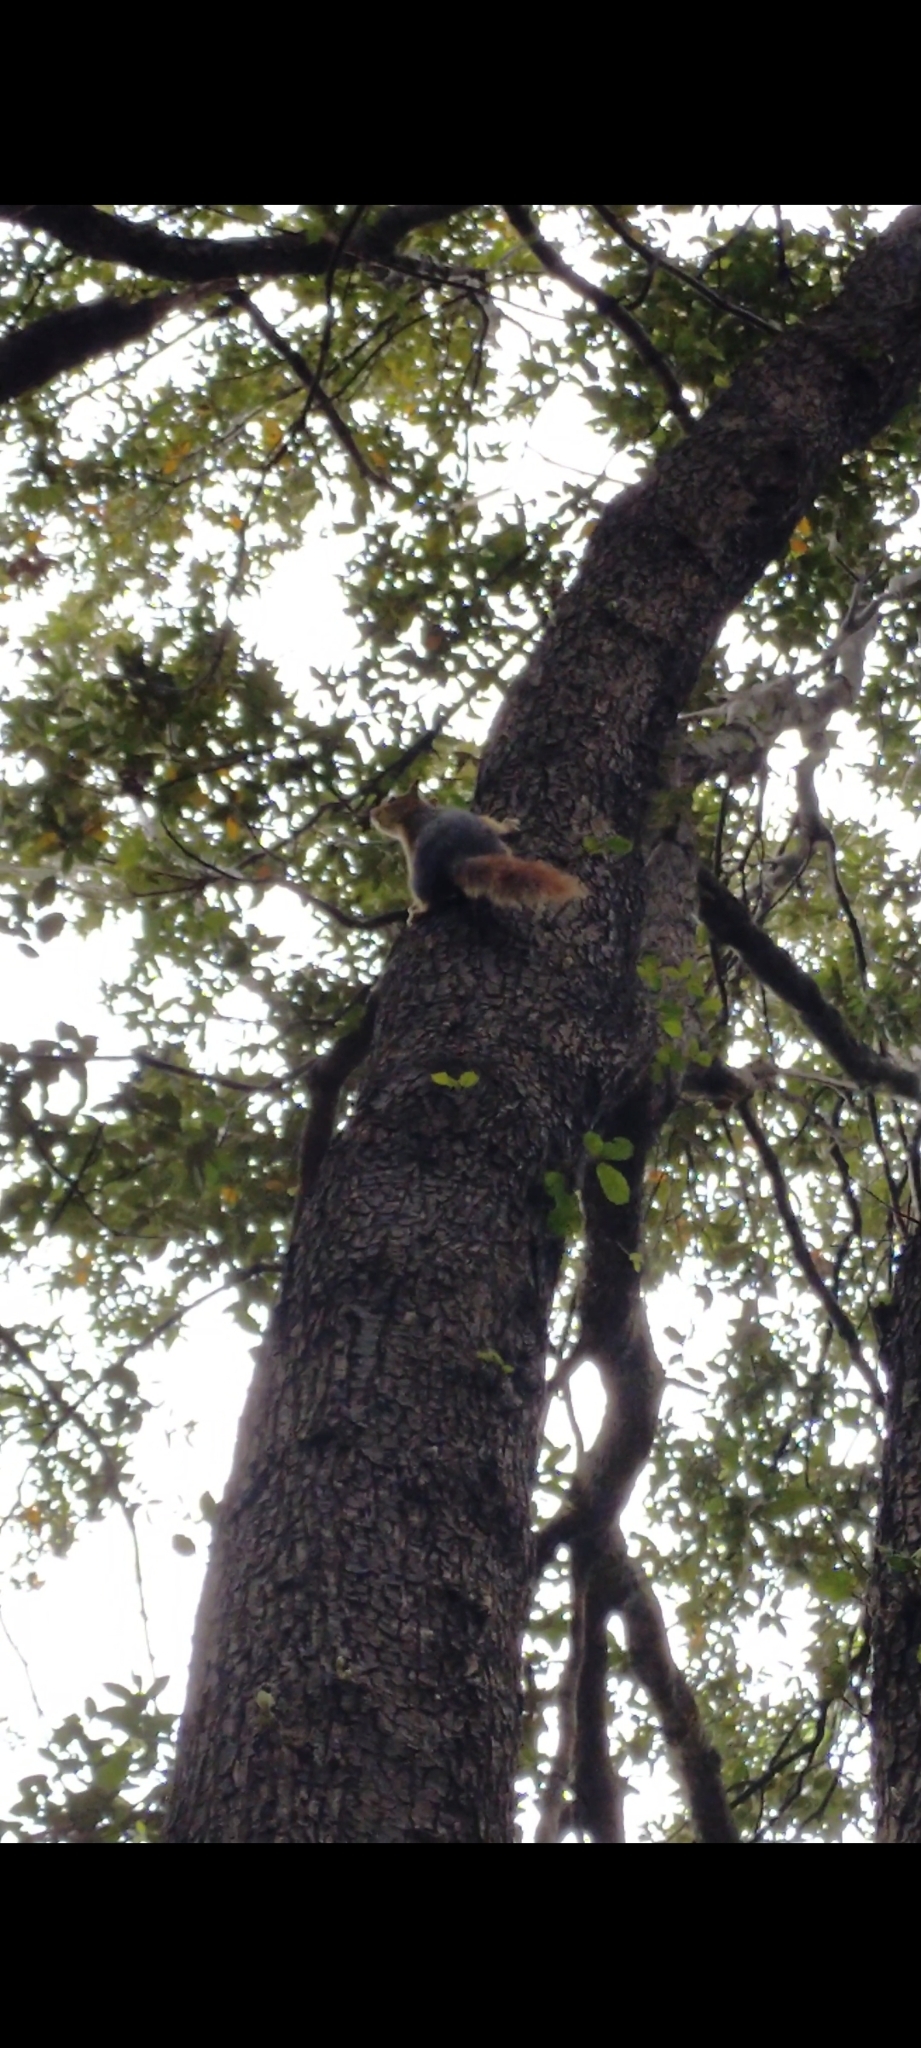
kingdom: Animalia
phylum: Chordata
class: Mammalia
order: Rodentia
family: Sciuridae
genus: Sciurus
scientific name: Sciurus anomalus
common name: Caucasian squirrel
